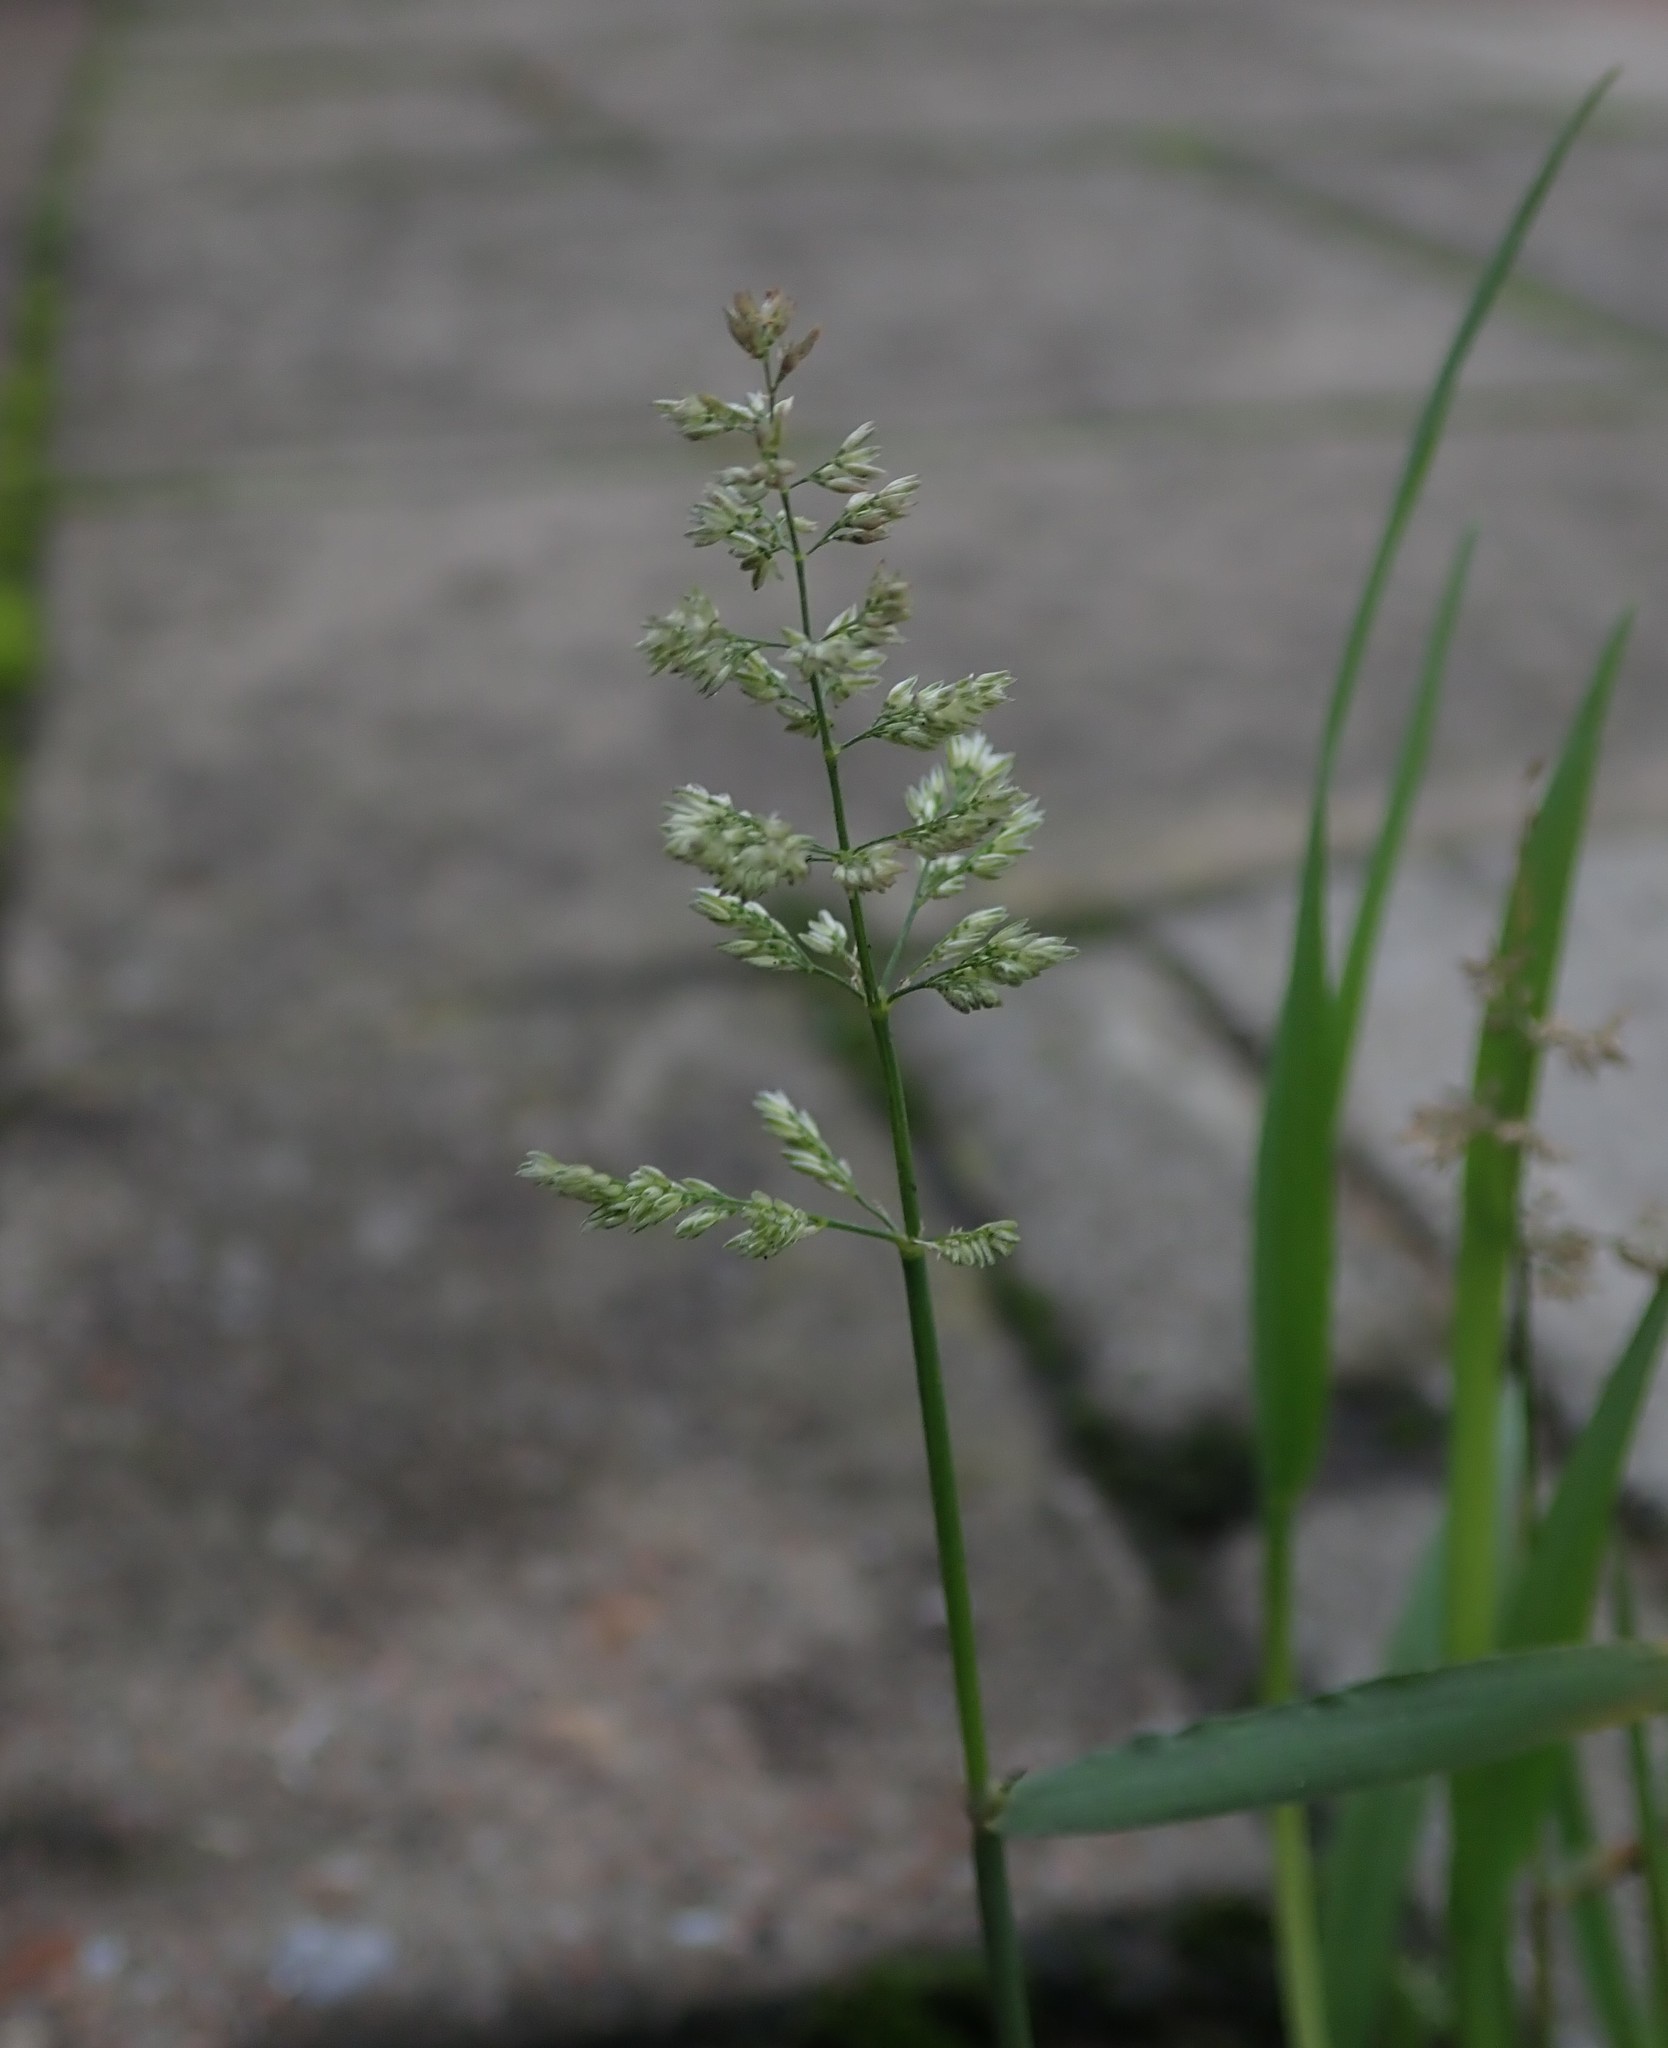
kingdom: Plantae
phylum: Tracheophyta
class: Liliopsida
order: Poales
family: Poaceae
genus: Polypogon
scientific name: Polypogon viridis
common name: Water bent
